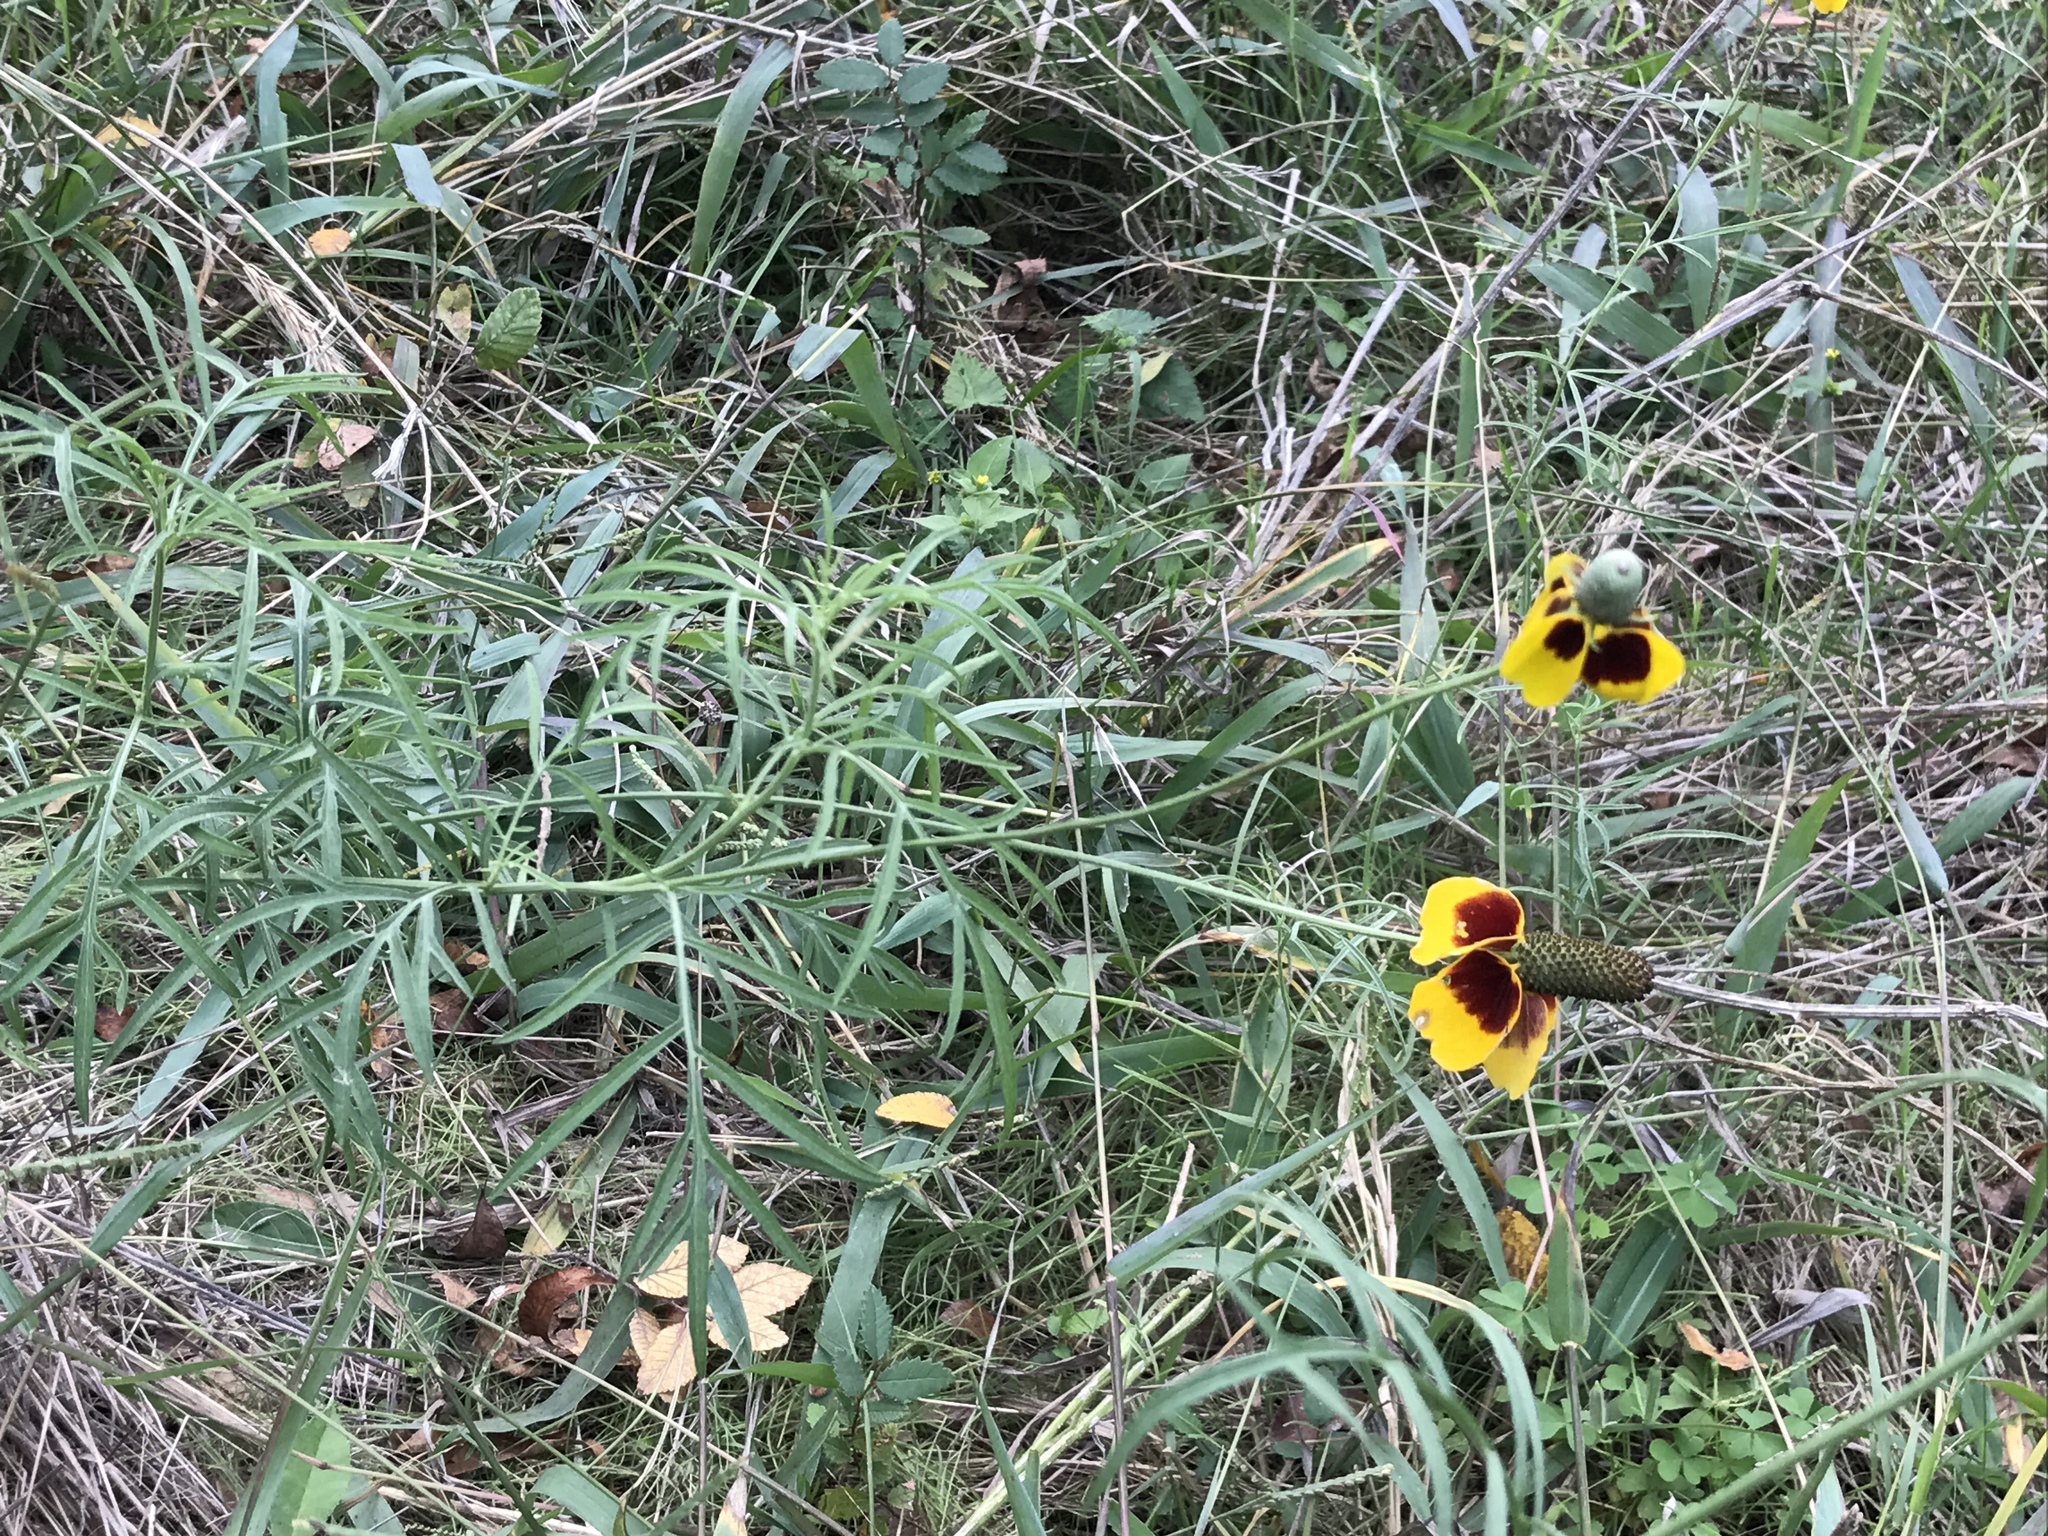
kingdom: Plantae
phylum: Tracheophyta
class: Magnoliopsida
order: Asterales
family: Asteraceae
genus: Ratibida
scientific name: Ratibida columnifera
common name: Prairie coneflower
